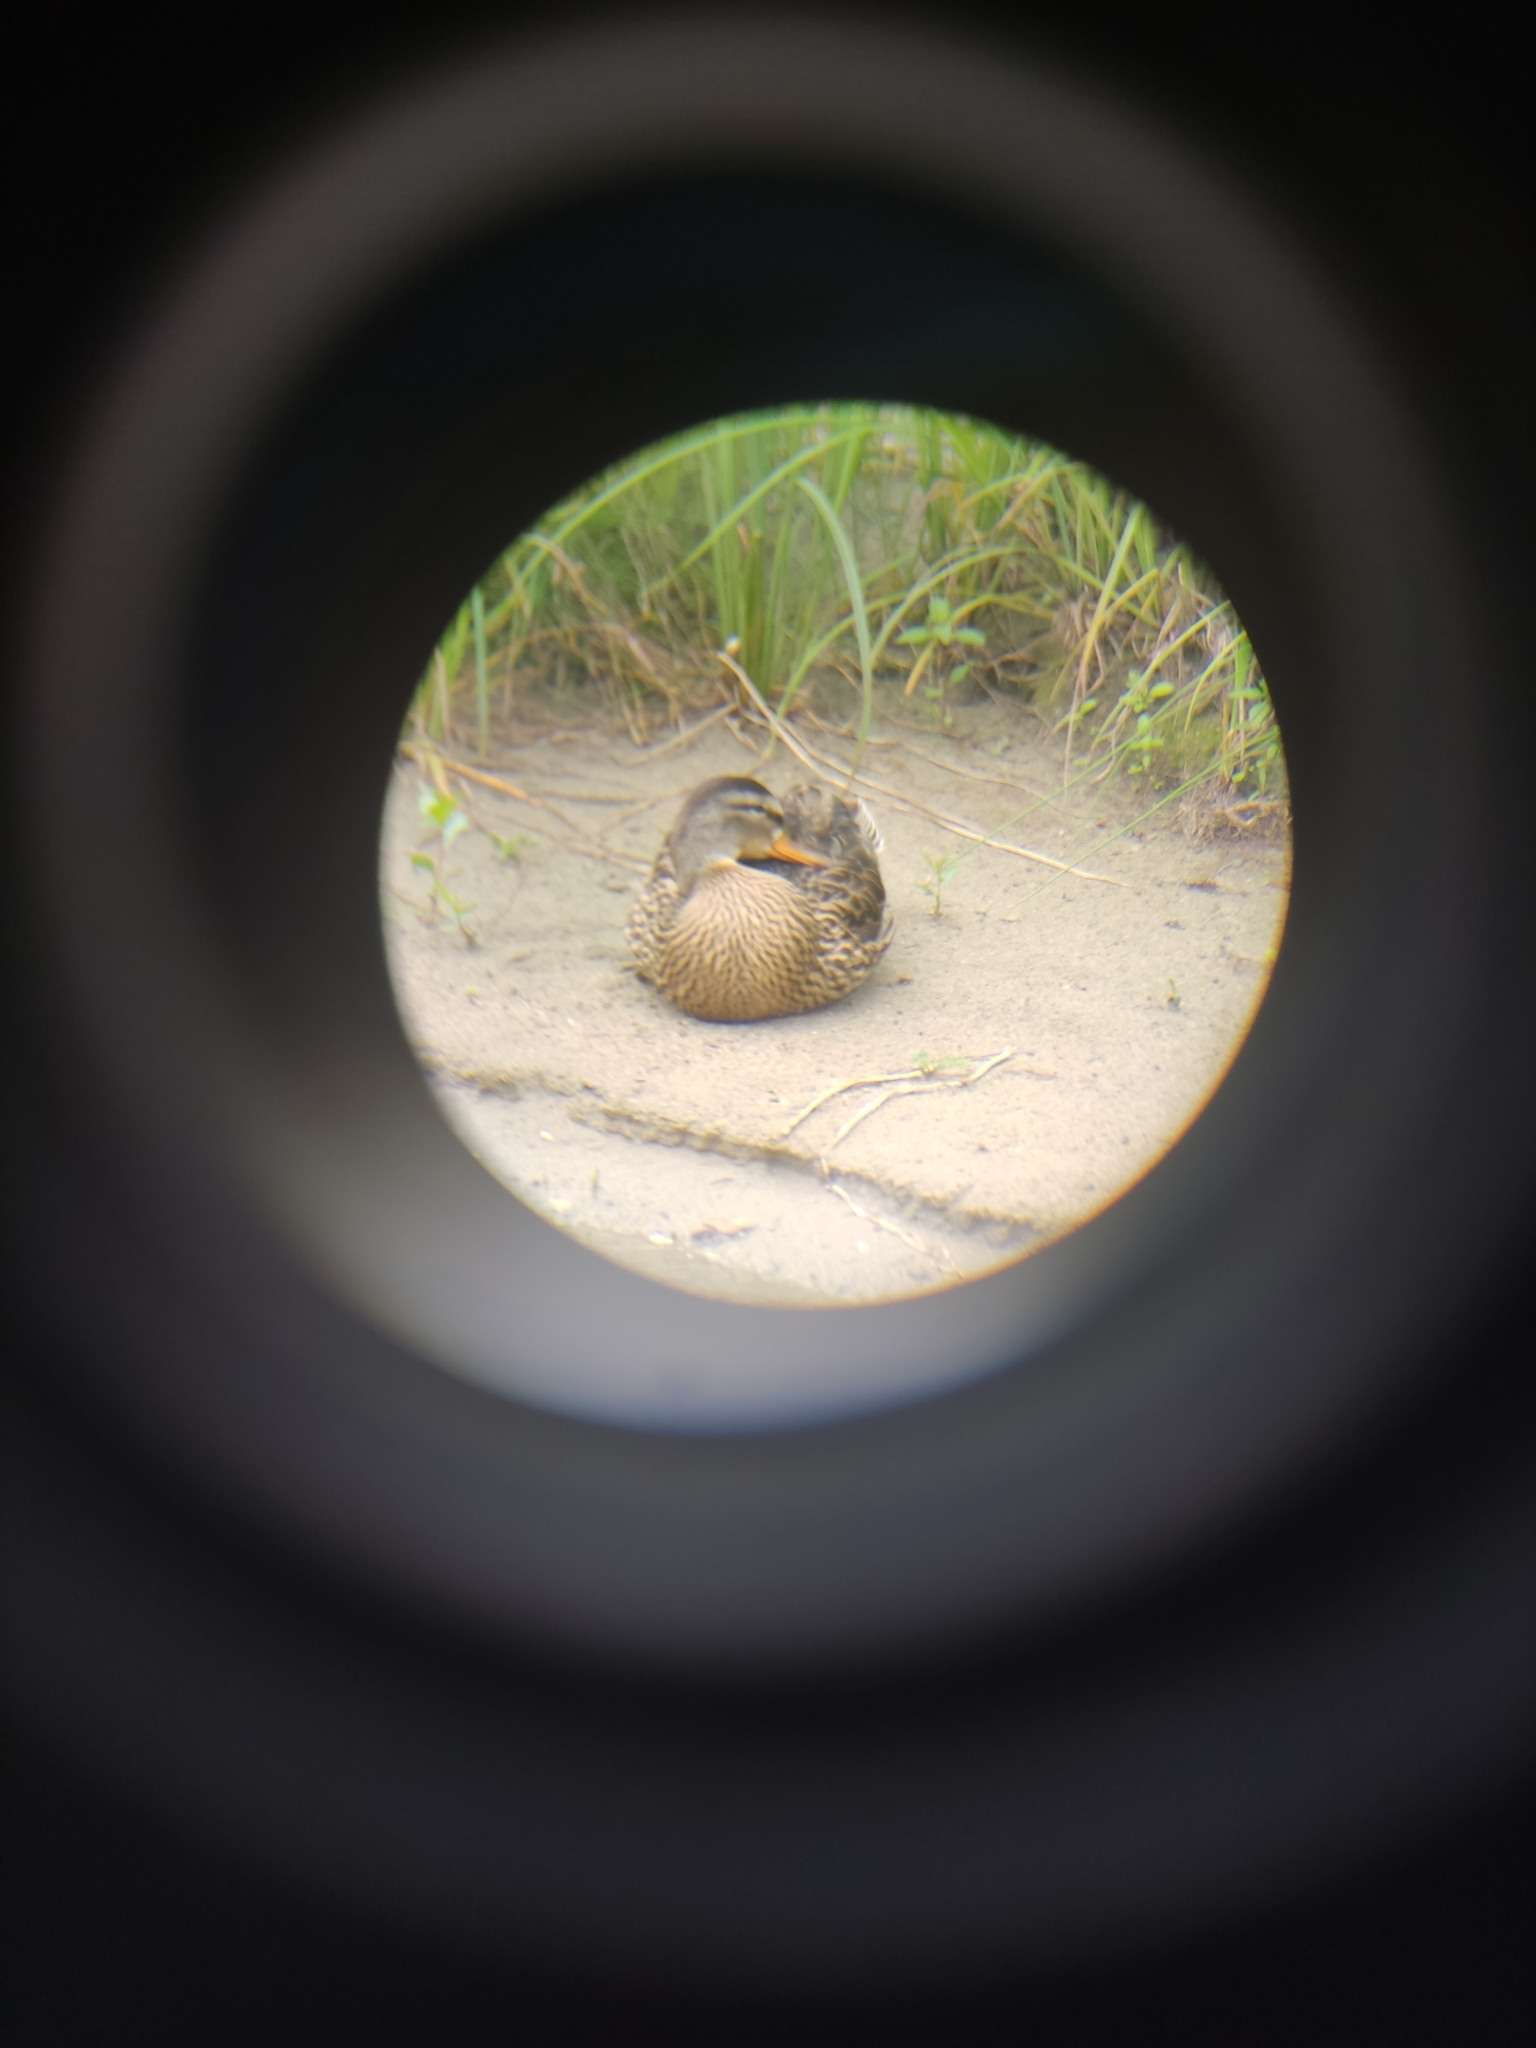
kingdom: Animalia
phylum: Chordata
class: Aves
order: Anseriformes
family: Anatidae
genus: Anas
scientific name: Anas platyrhynchos
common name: Mallard
